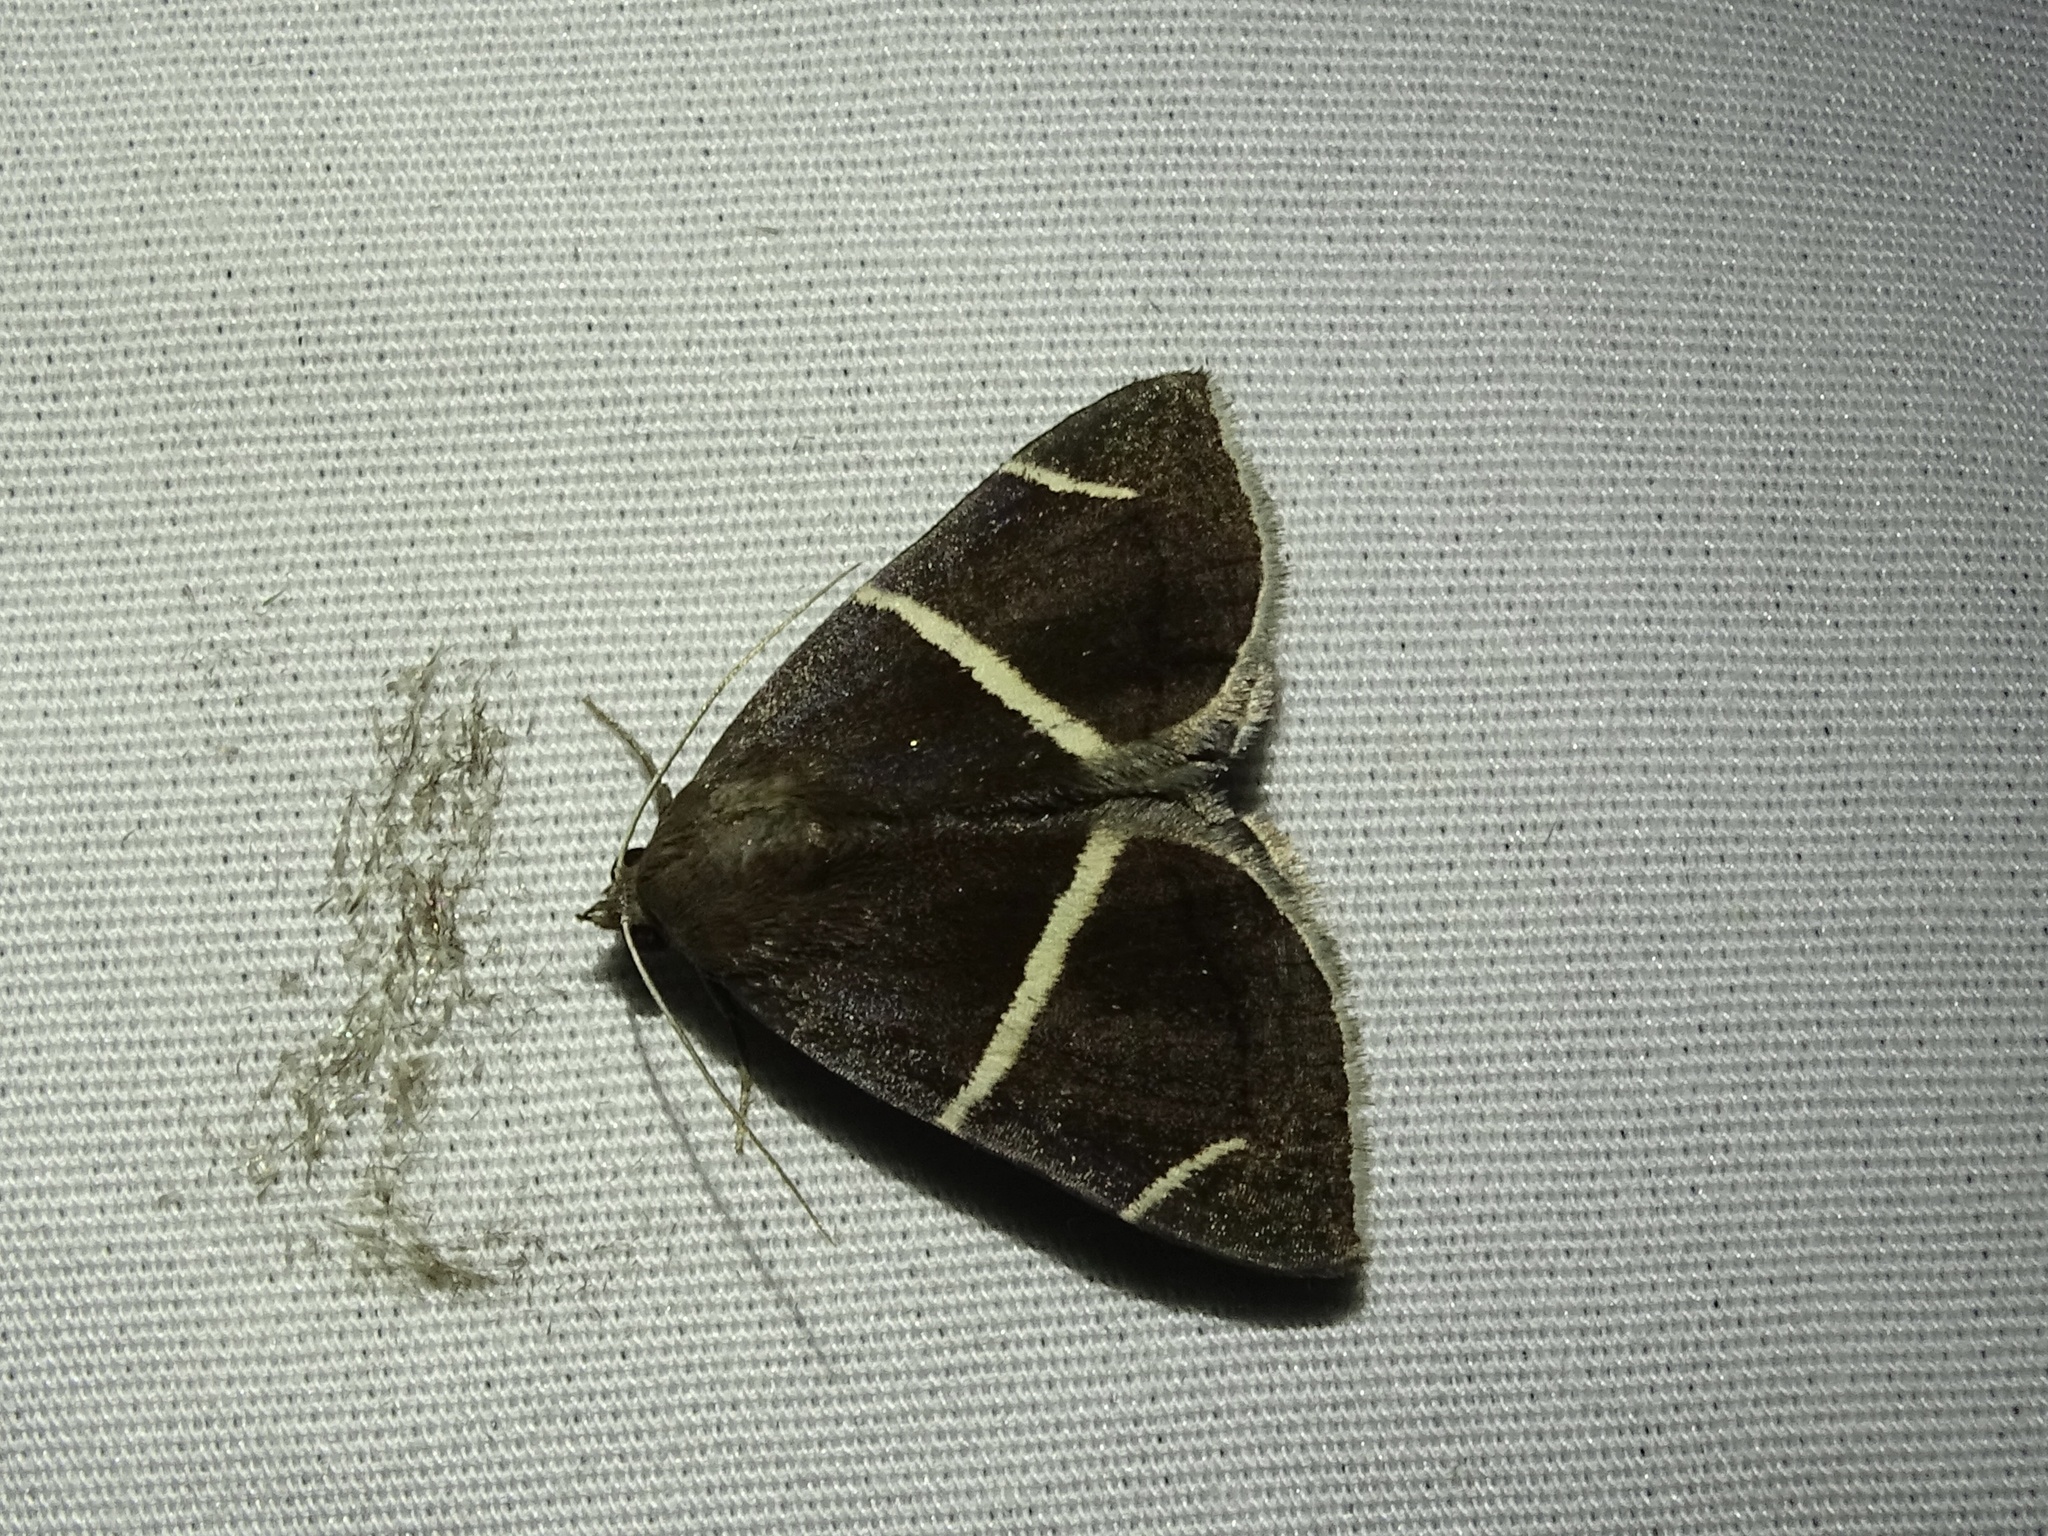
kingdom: Animalia
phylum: Arthropoda
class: Insecta
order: Lepidoptera
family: Erebidae
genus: Argyrostrotis
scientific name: Argyrostrotis anilis
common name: Short-lined chocolate
